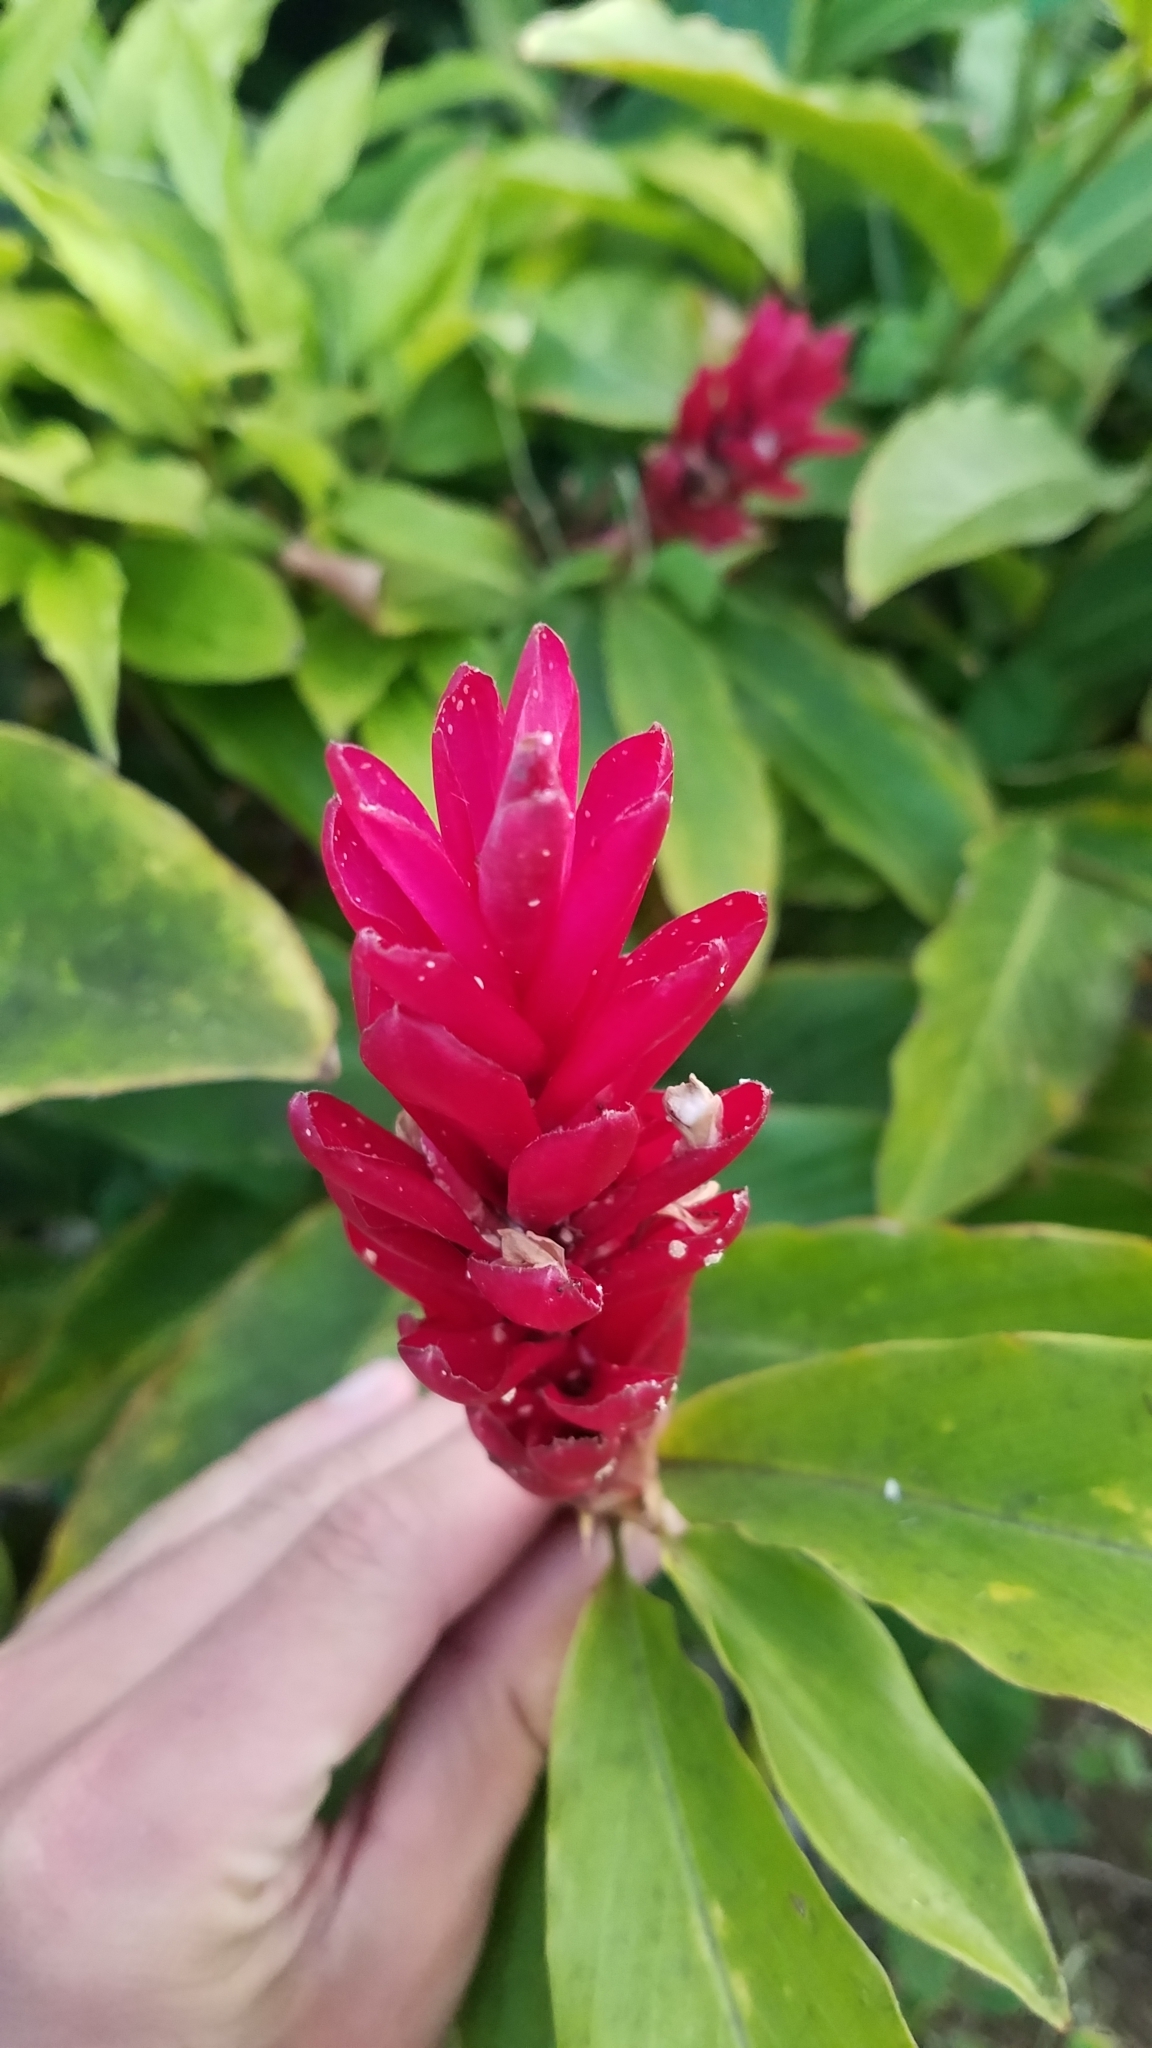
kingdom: Plantae
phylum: Tracheophyta
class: Liliopsida
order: Zingiberales
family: Zingiberaceae
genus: Alpinia
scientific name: Alpinia purpurata
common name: Red ginger
